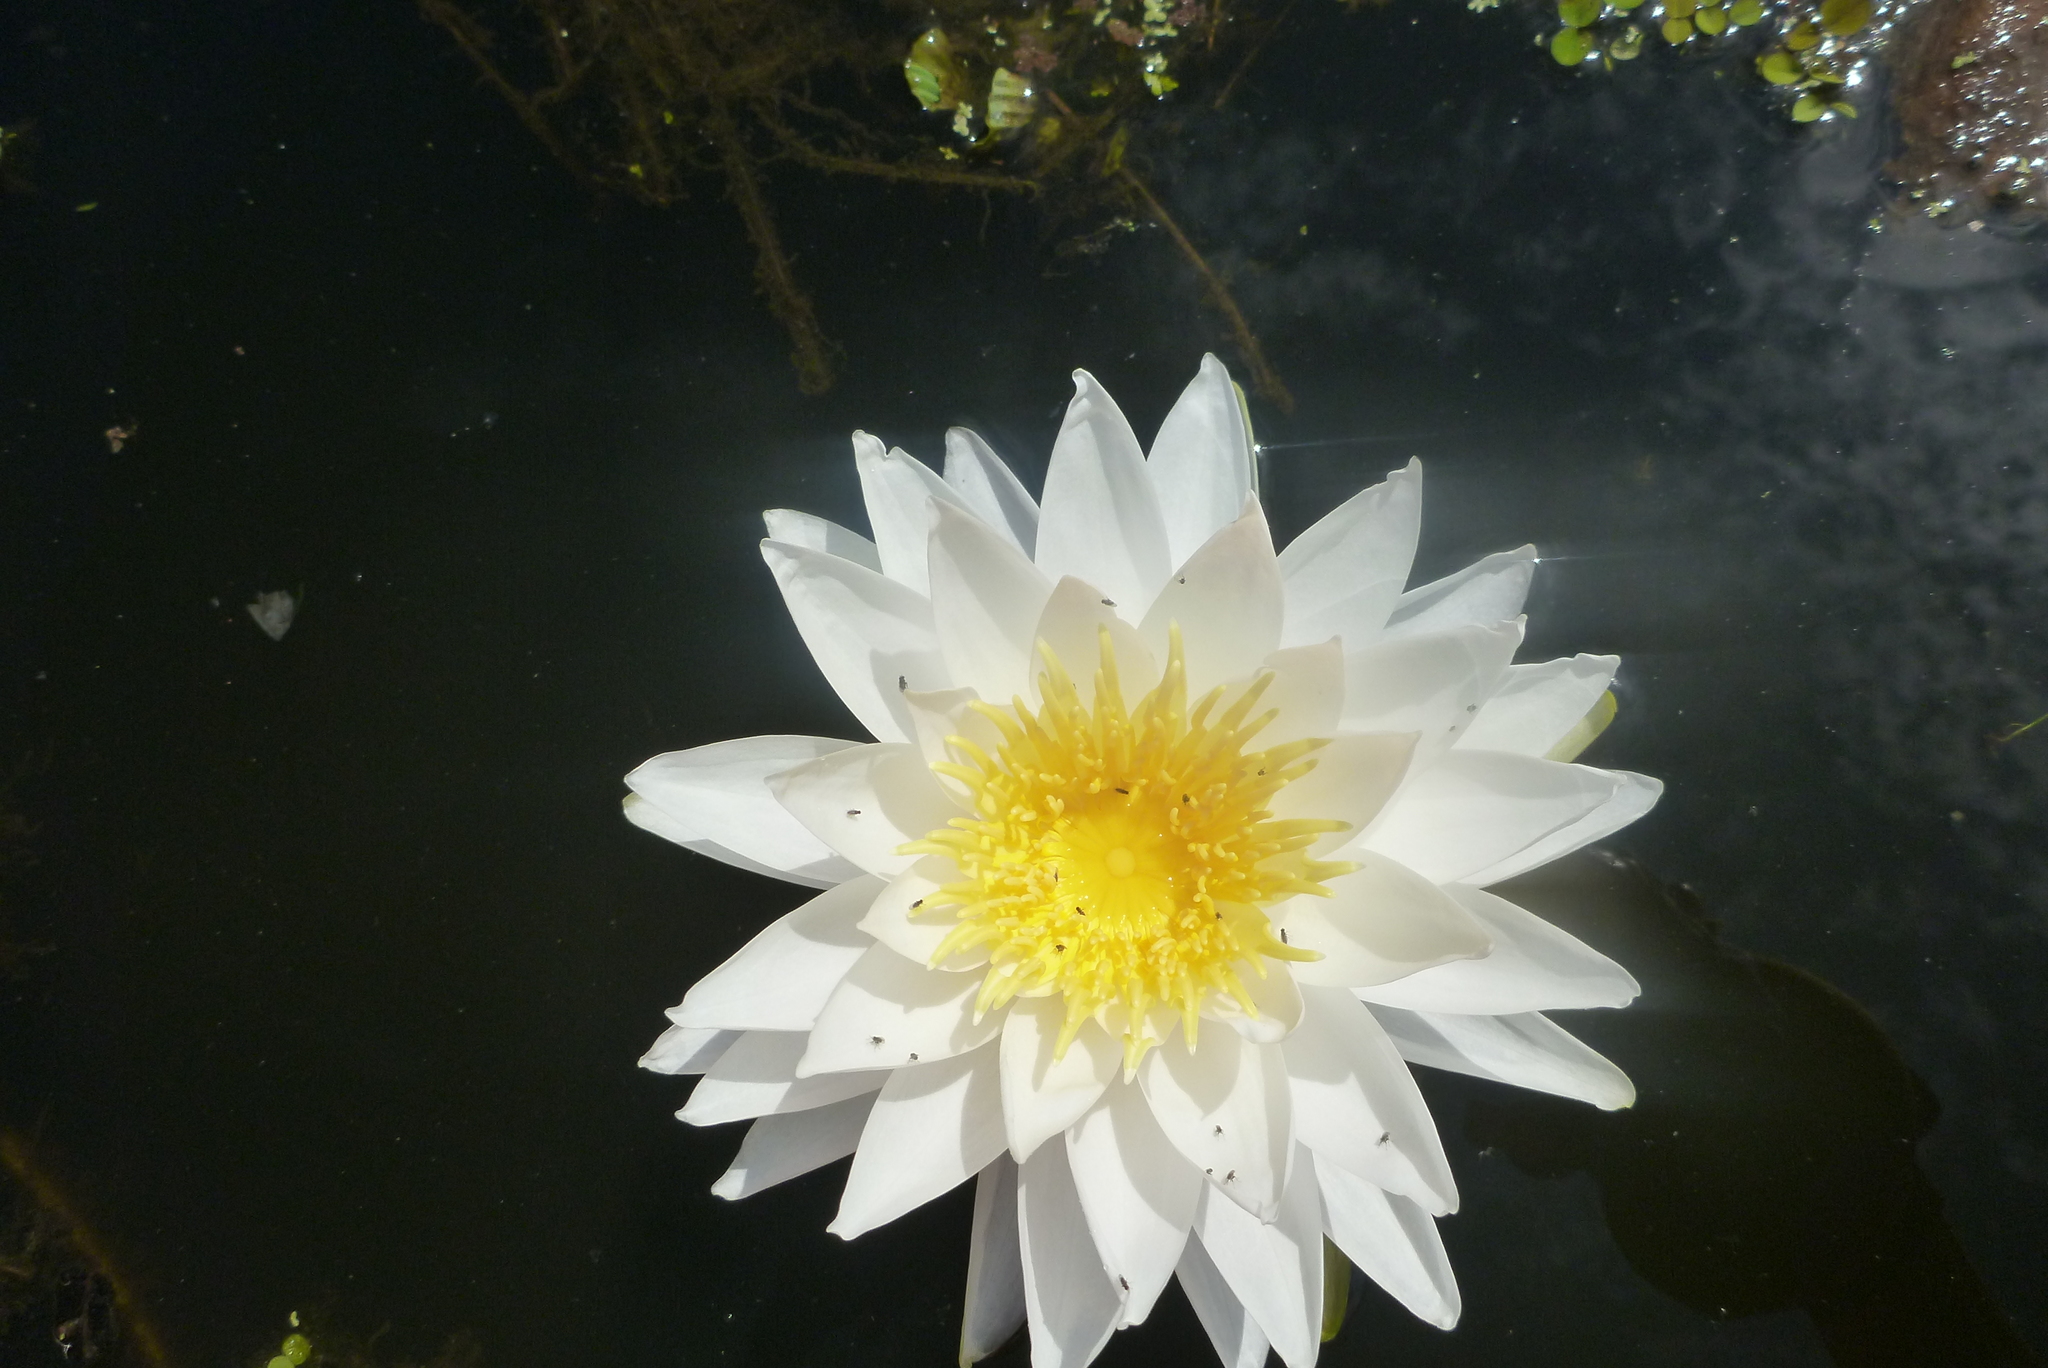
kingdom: Plantae
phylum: Tracheophyta
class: Magnoliopsida
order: Nymphaeales
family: Nymphaeaceae
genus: Nymphaea
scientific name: Nymphaea odorata
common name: Fragrant water-lily
